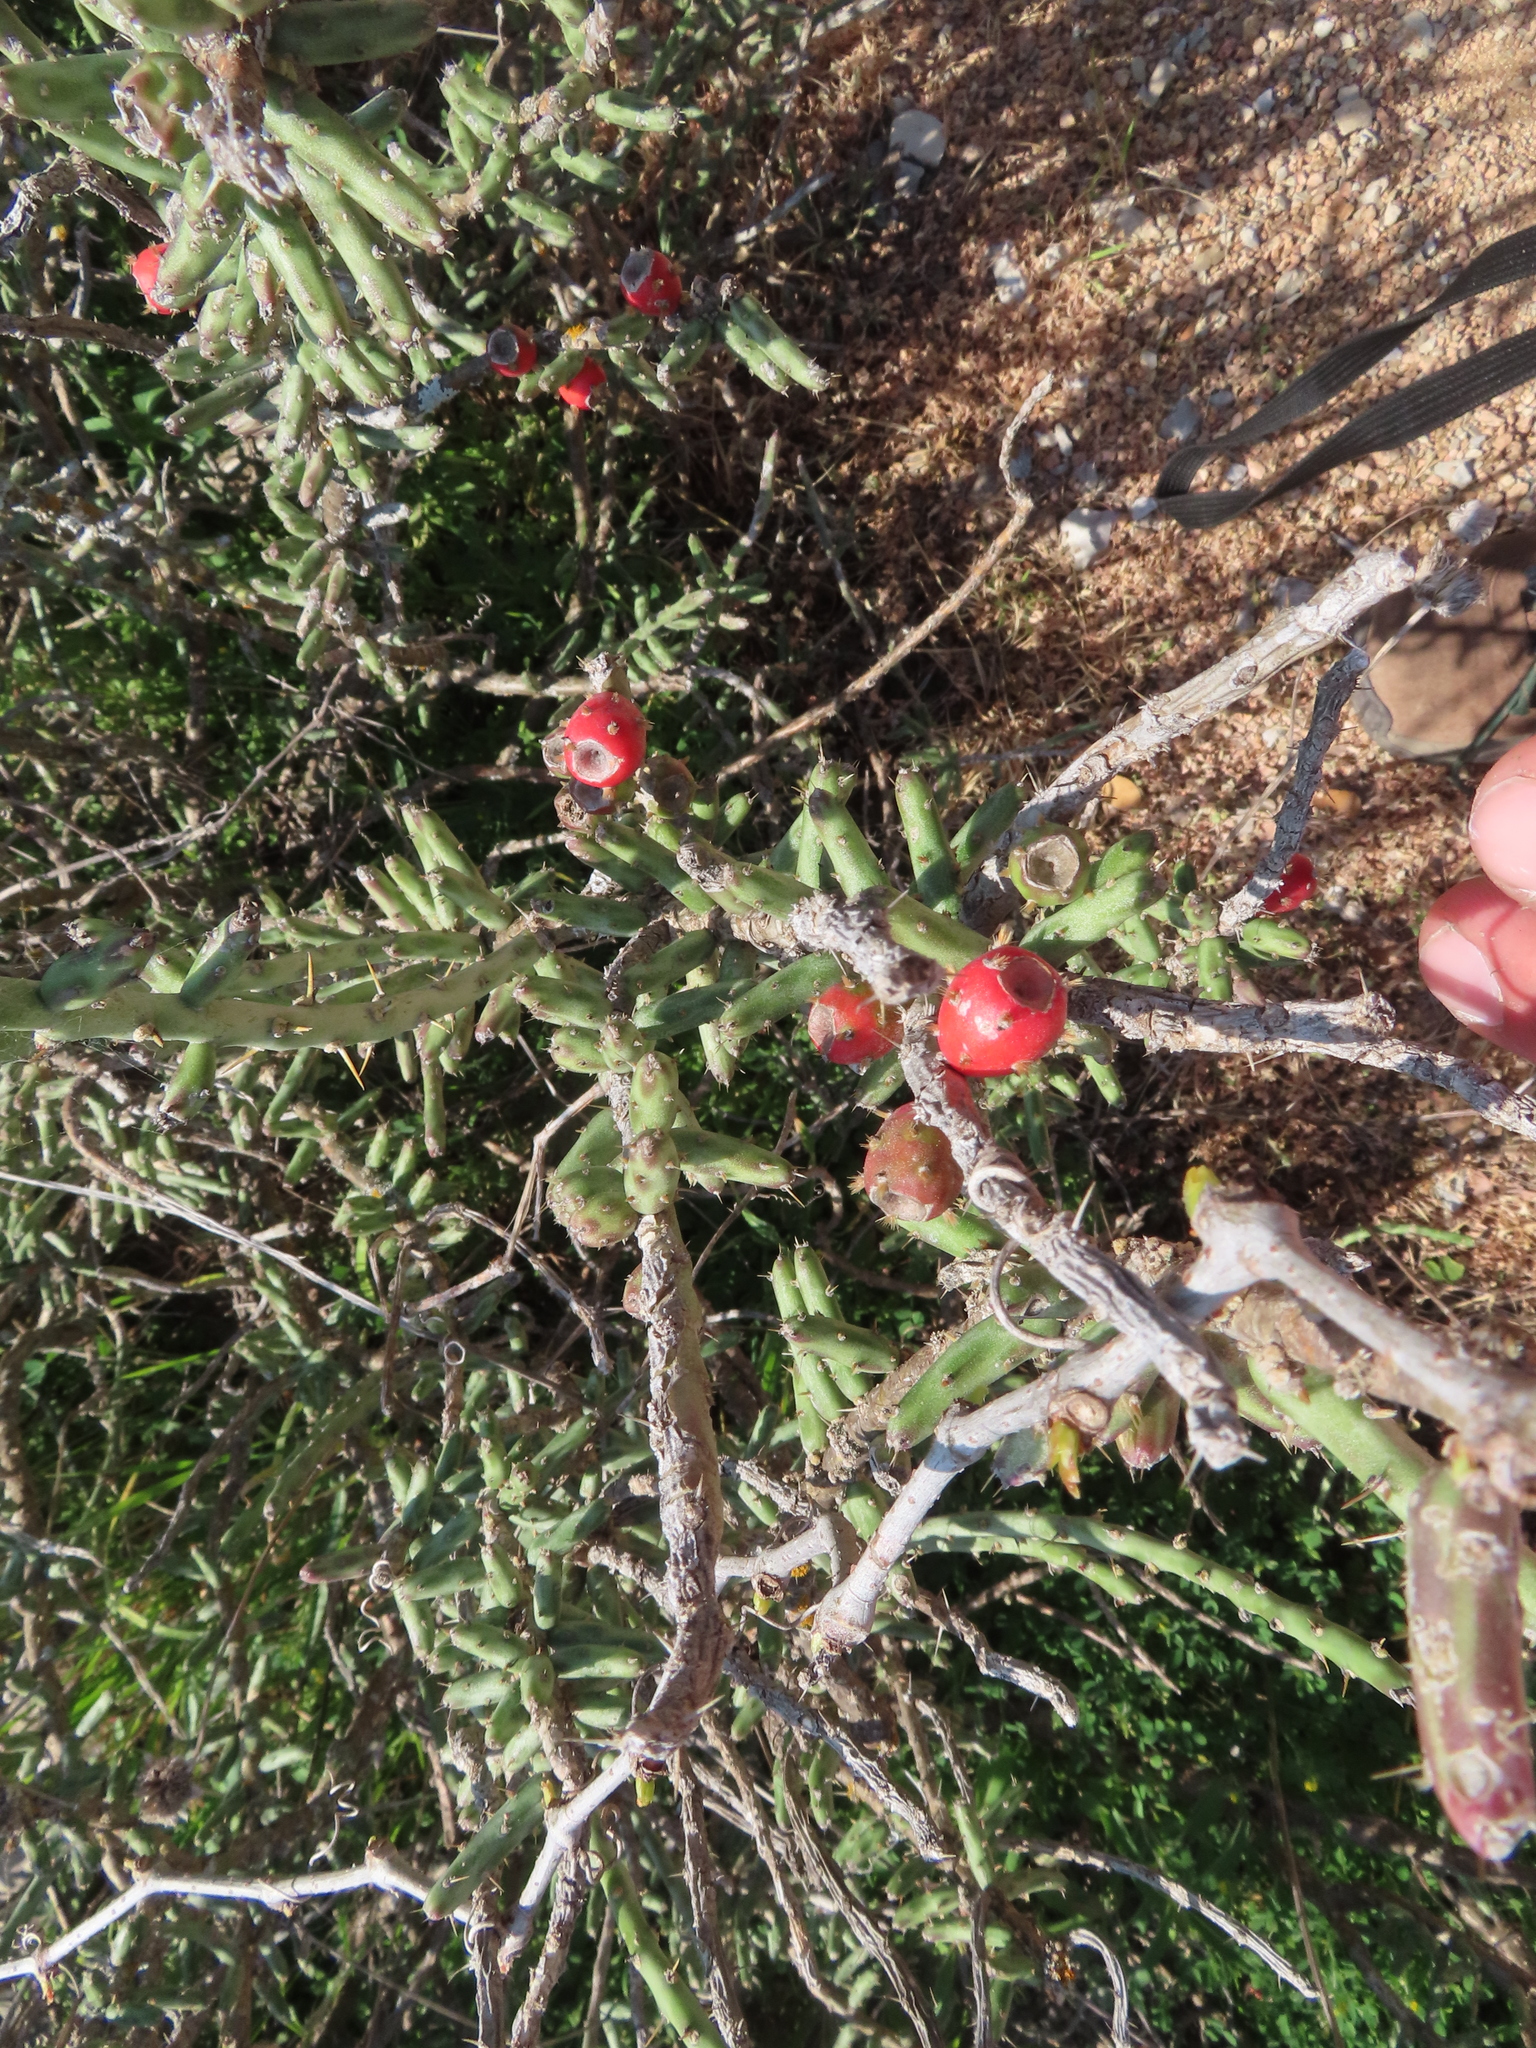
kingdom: Plantae
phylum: Tracheophyta
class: Magnoliopsida
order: Caryophyllales
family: Cactaceae
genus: Cylindropuntia
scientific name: Cylindropuntia leptocaulis
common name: Christmas cactus
